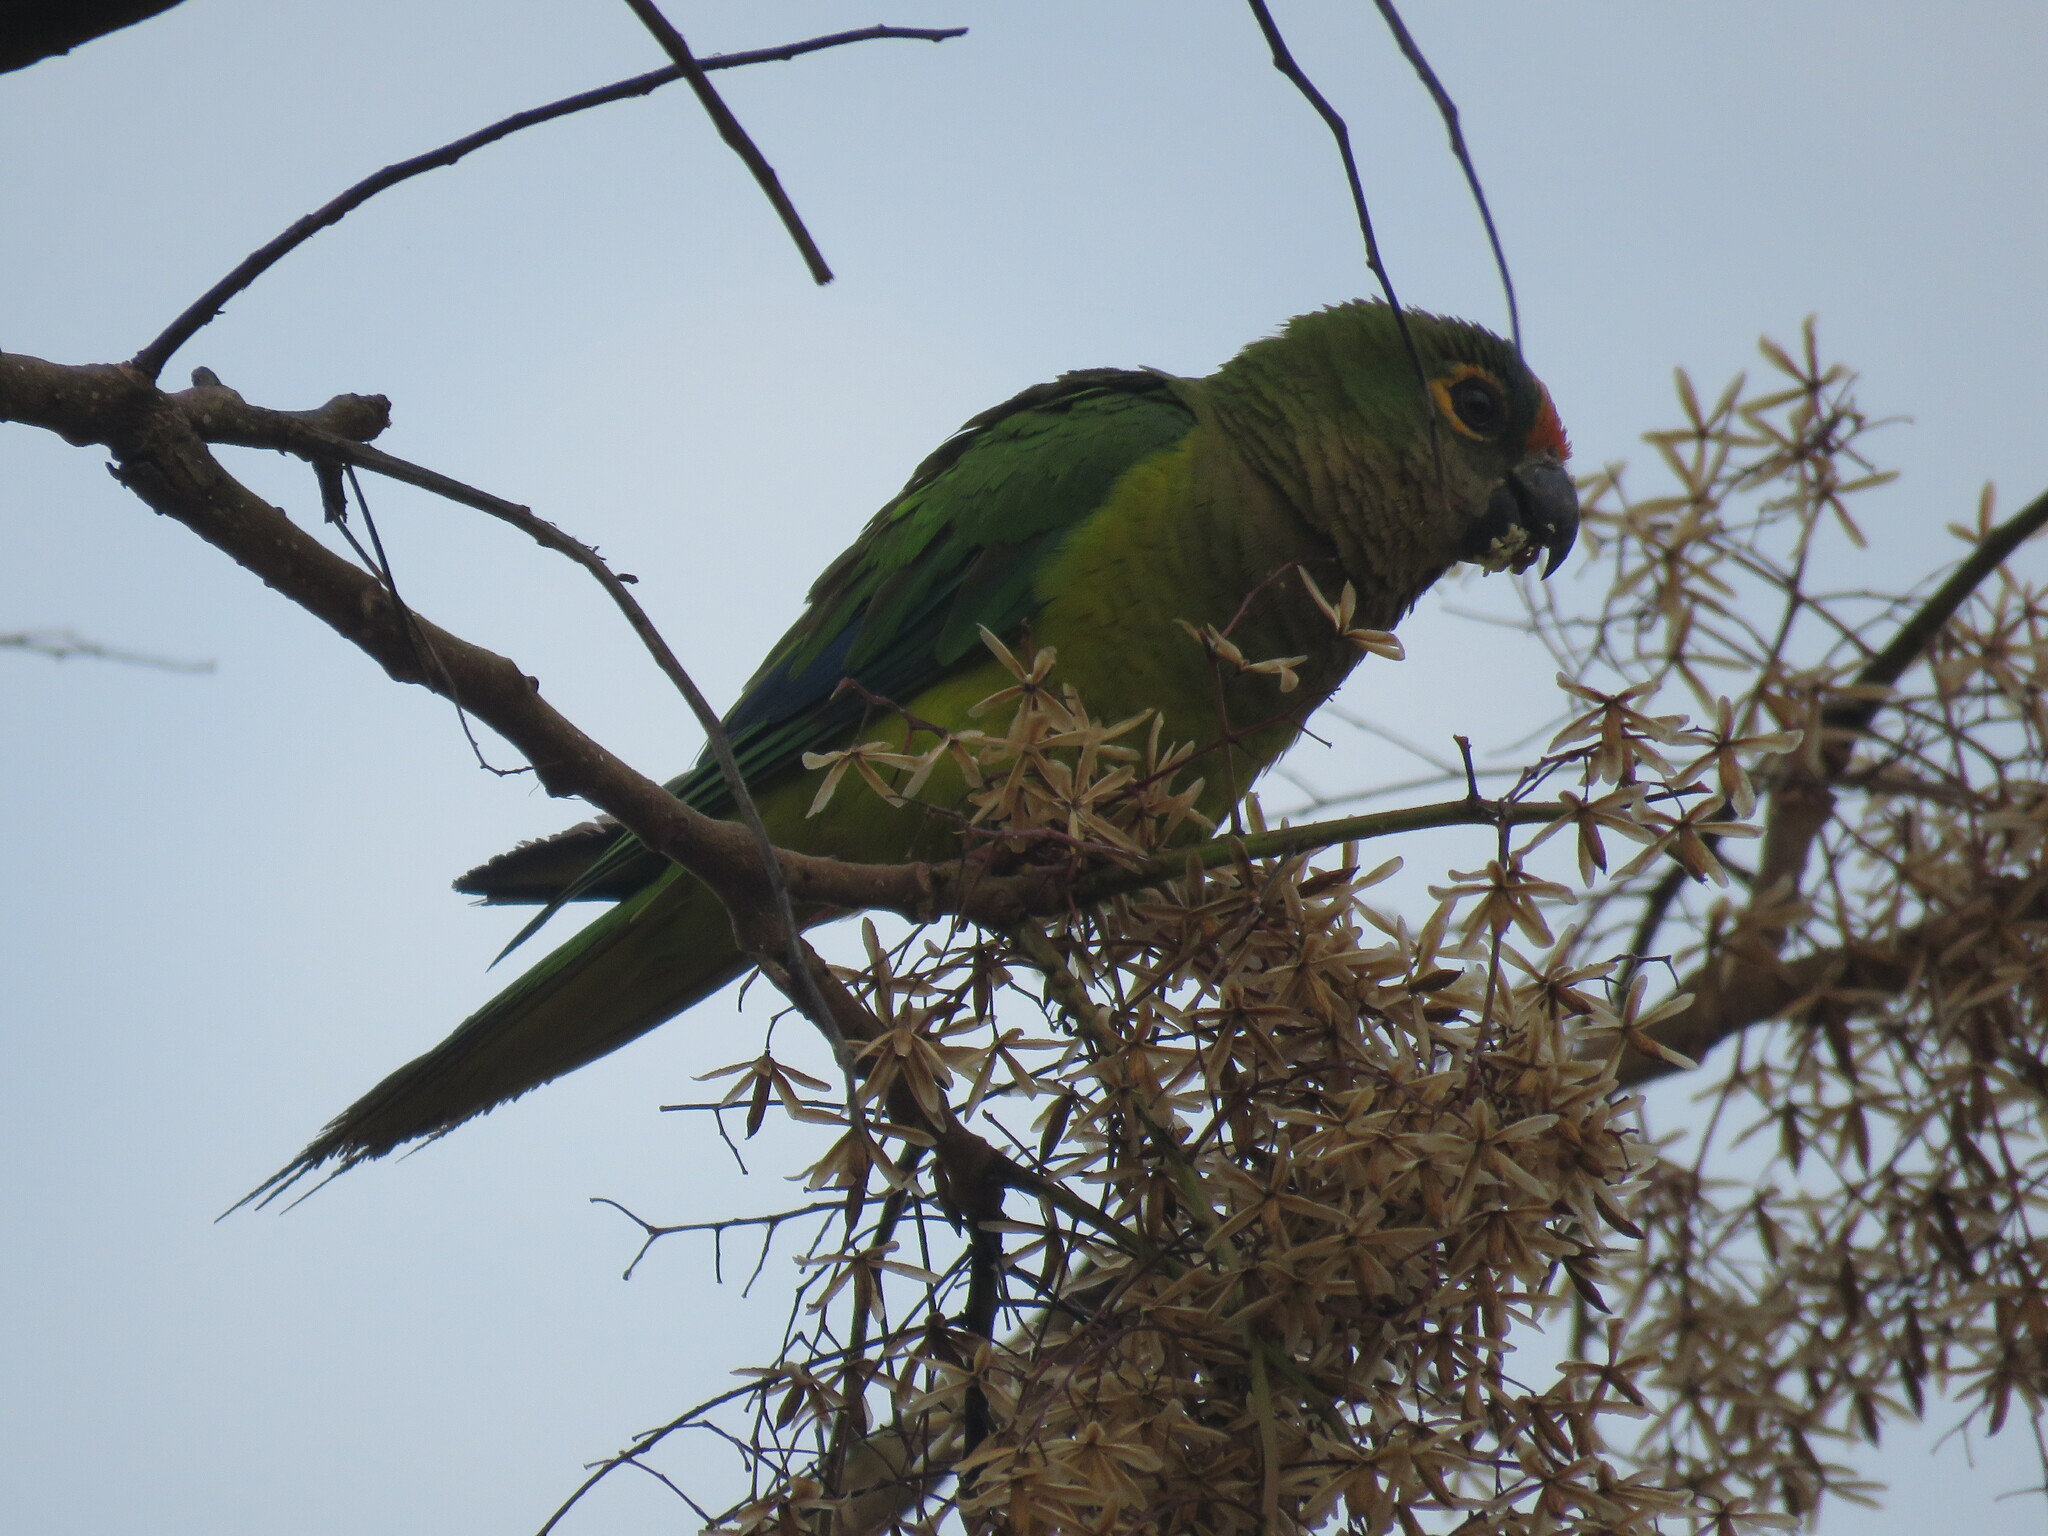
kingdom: Animalia
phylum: Chordata
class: Aves
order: Psittaciformes
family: Psittacidae
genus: Aratinga
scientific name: Aratinga aurea
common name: Peach-fronted parakeet
